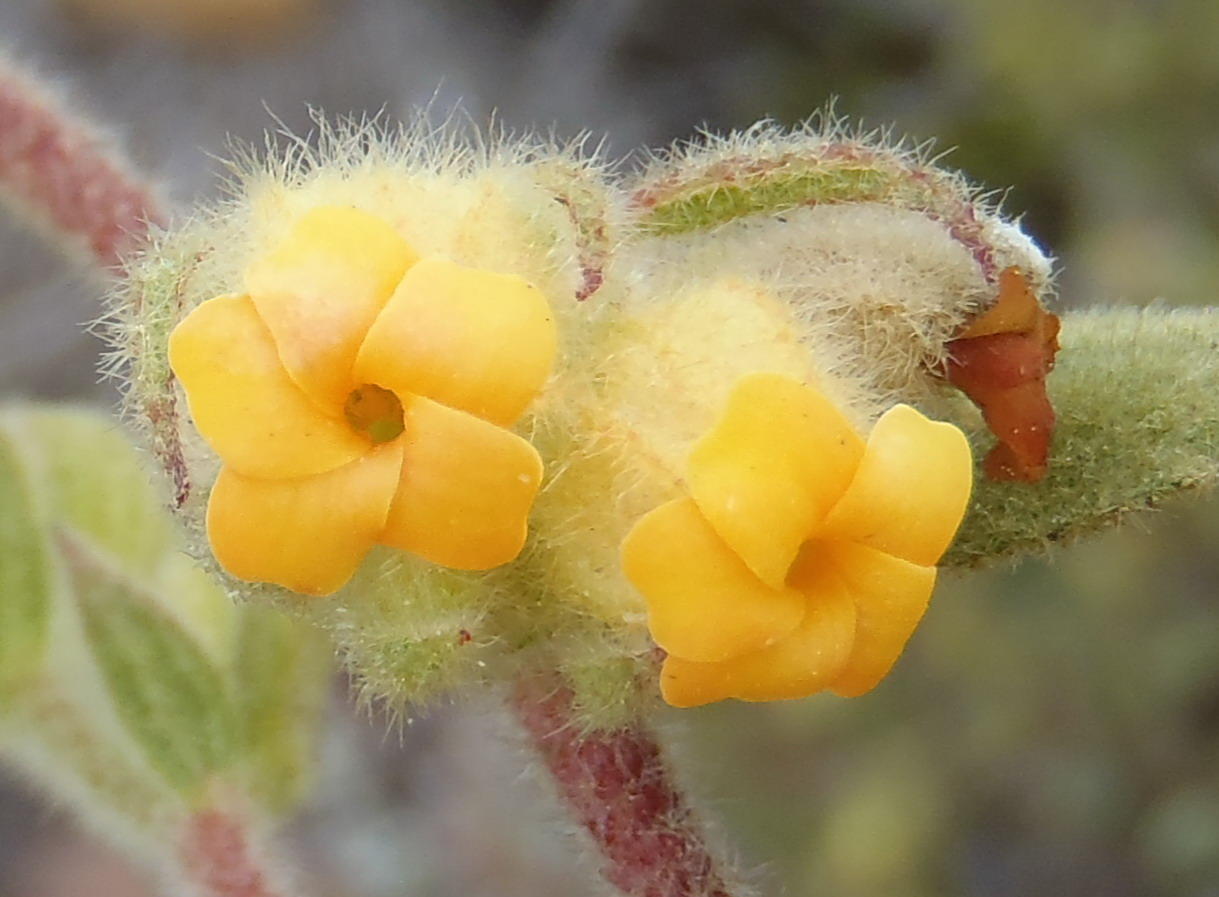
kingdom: Plantae
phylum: Tracheophyta
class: Magnoliopsida
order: Malvales
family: Malvaceae
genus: Hermannia
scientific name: Hermannia salviifolia
